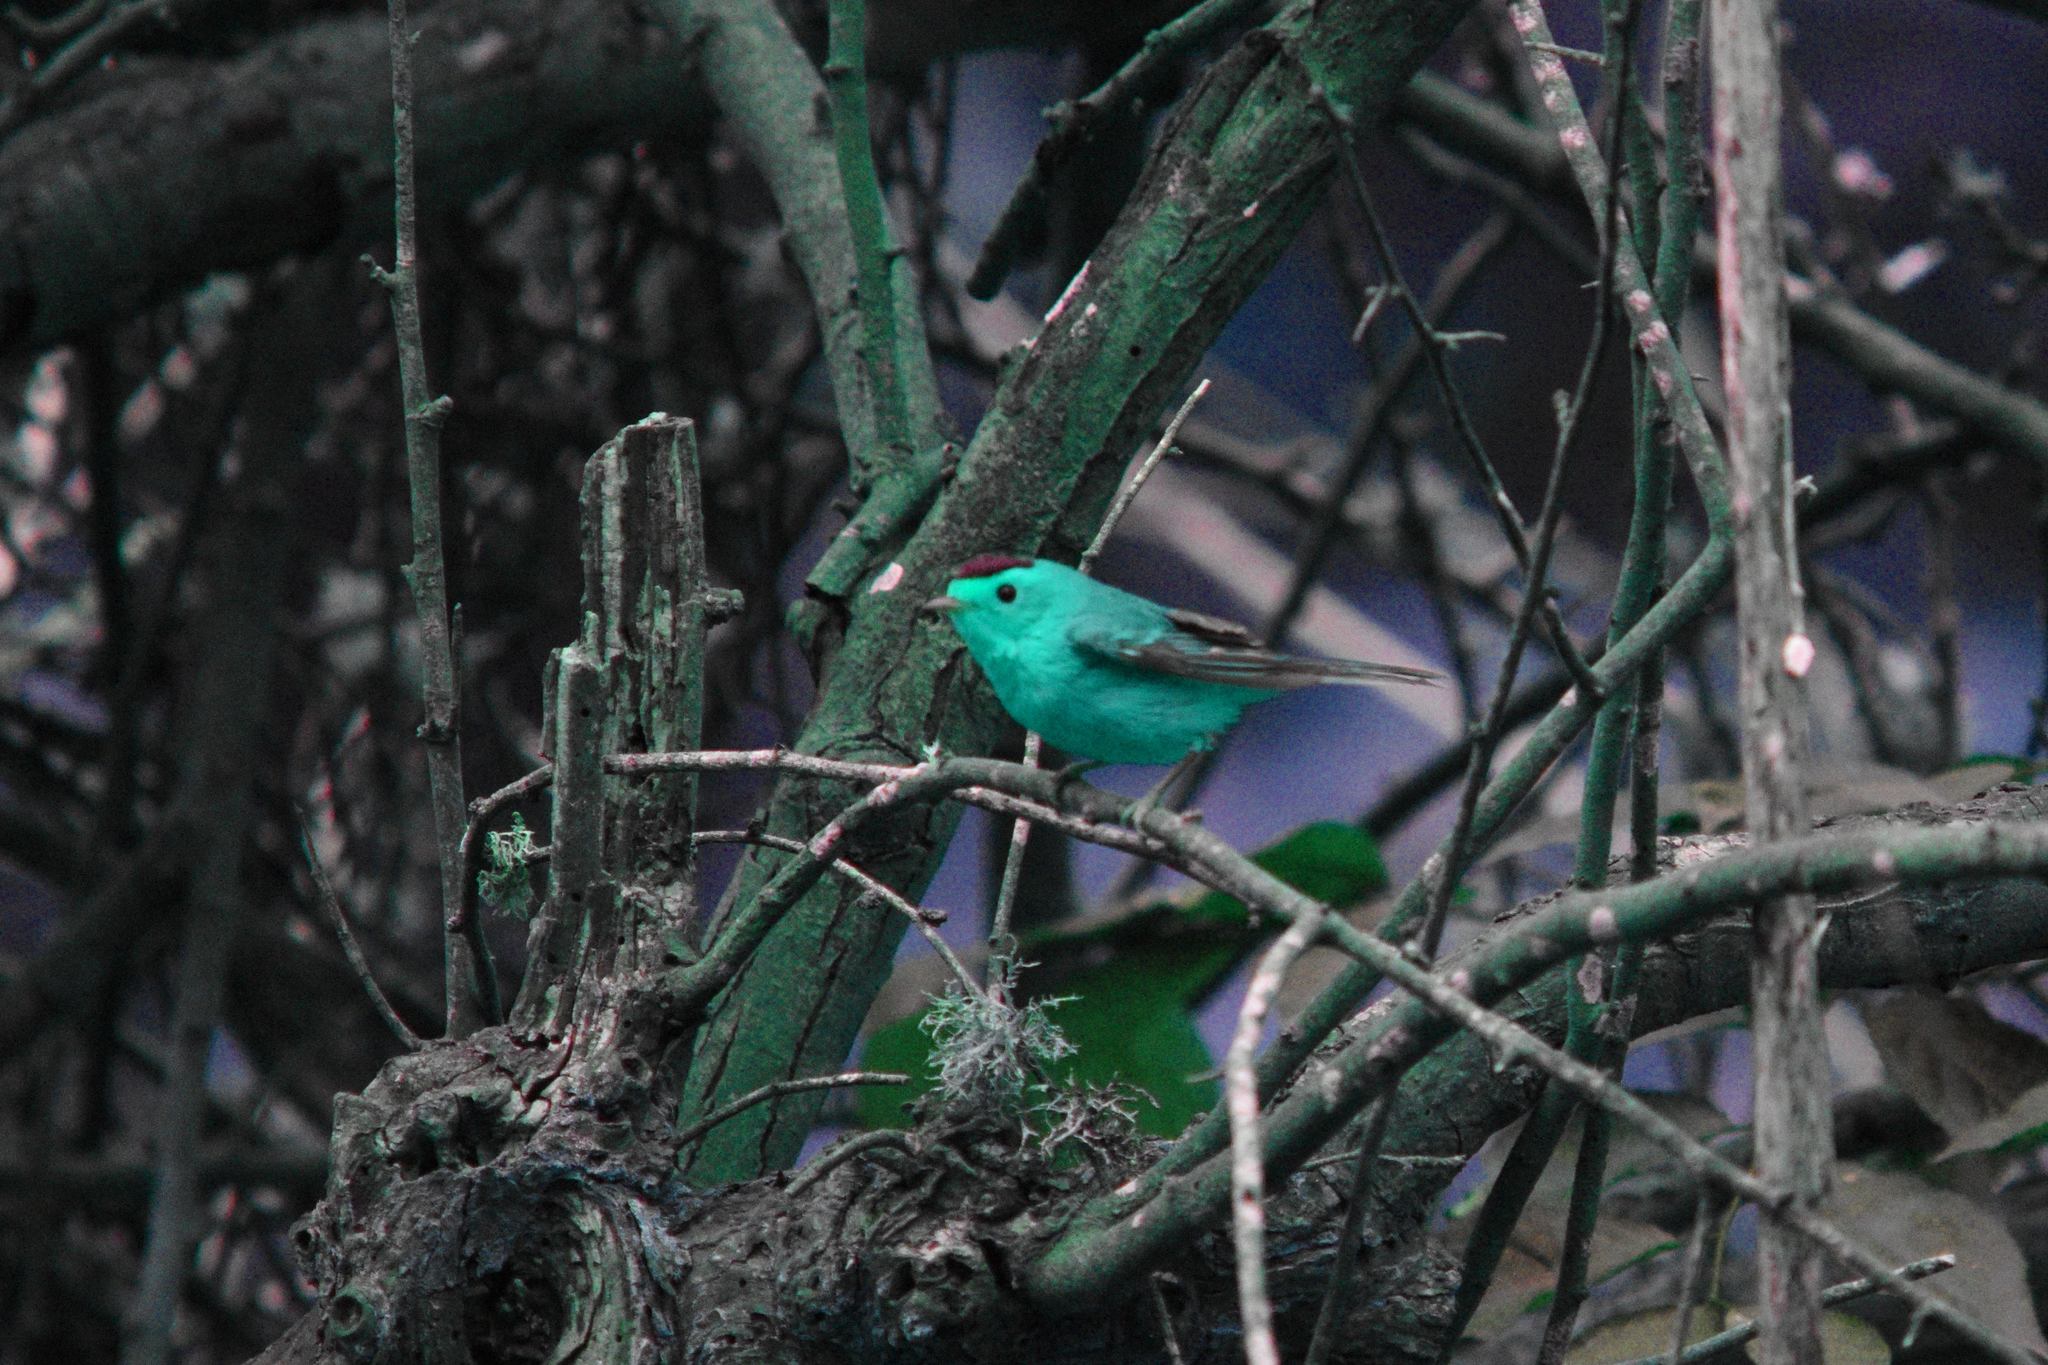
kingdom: Animalia
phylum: Chordata
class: Aves
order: Passeriformes
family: Parulidae
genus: Cardellina
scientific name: Cardellina pusilla
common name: Wilson's warbler
